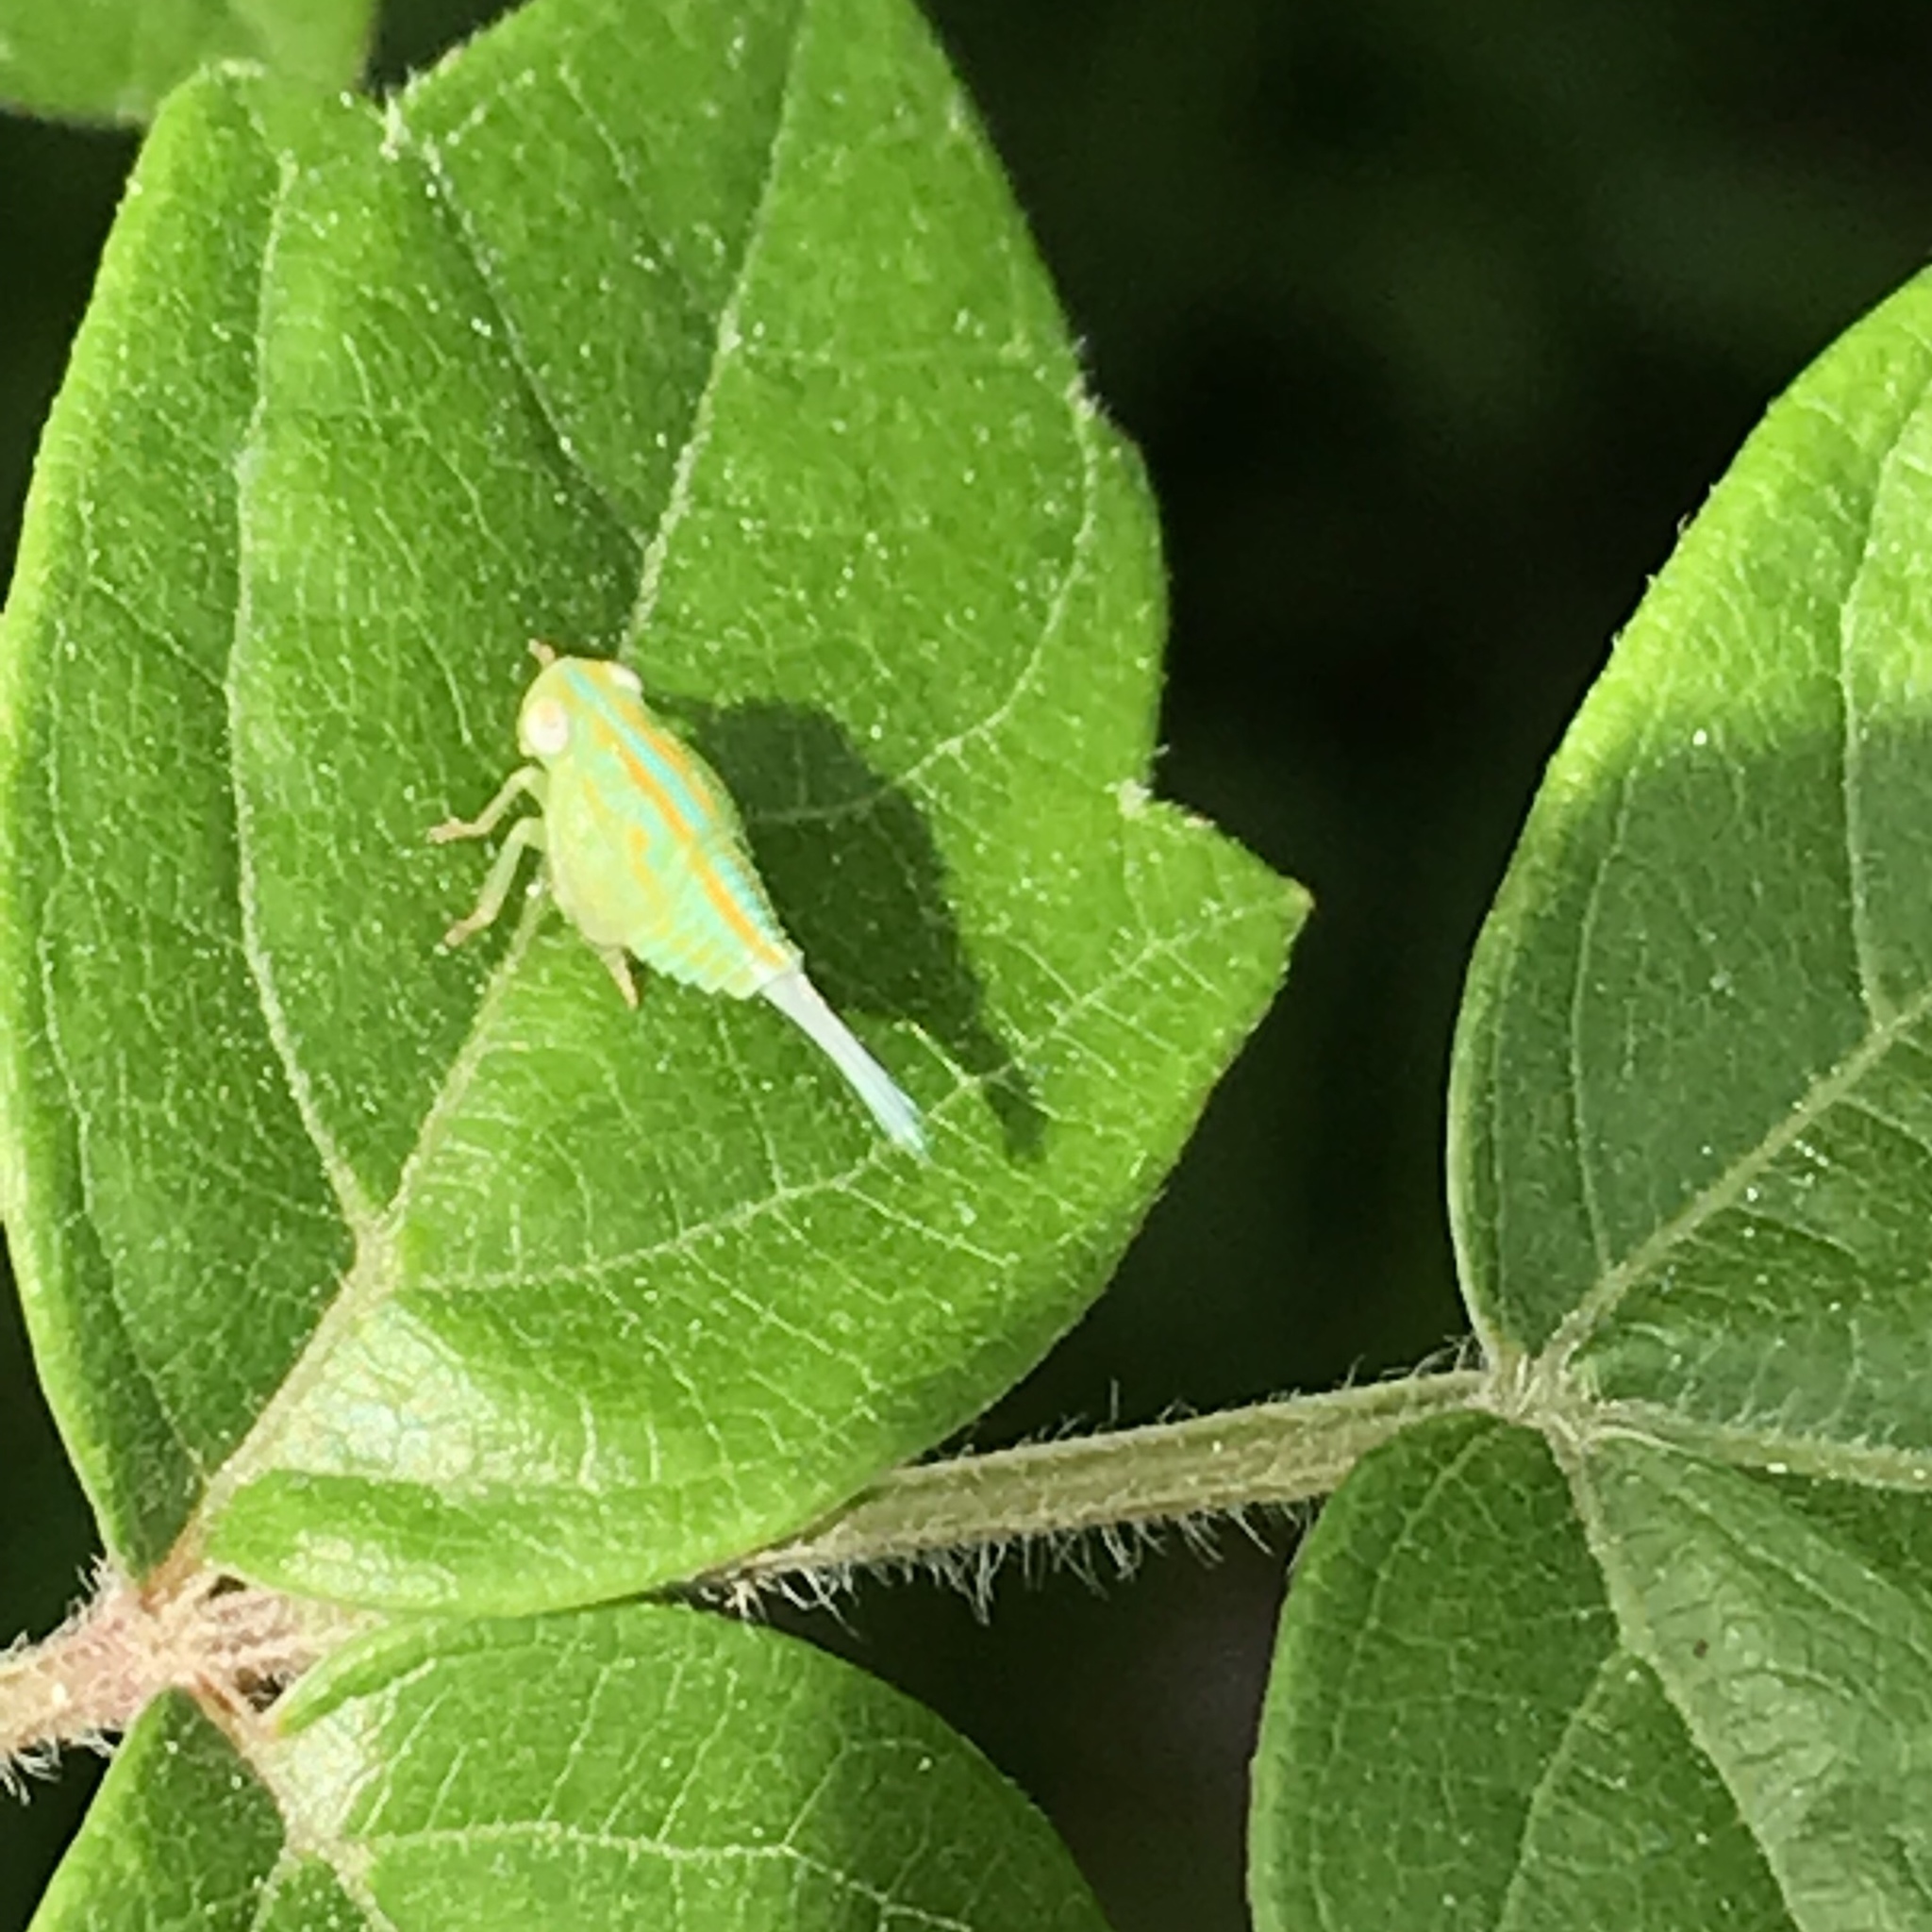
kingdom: Animalia
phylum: Arthropoda
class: Insecta
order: Hemiptera
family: Issidae
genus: Aplos
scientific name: Aplos simplex
